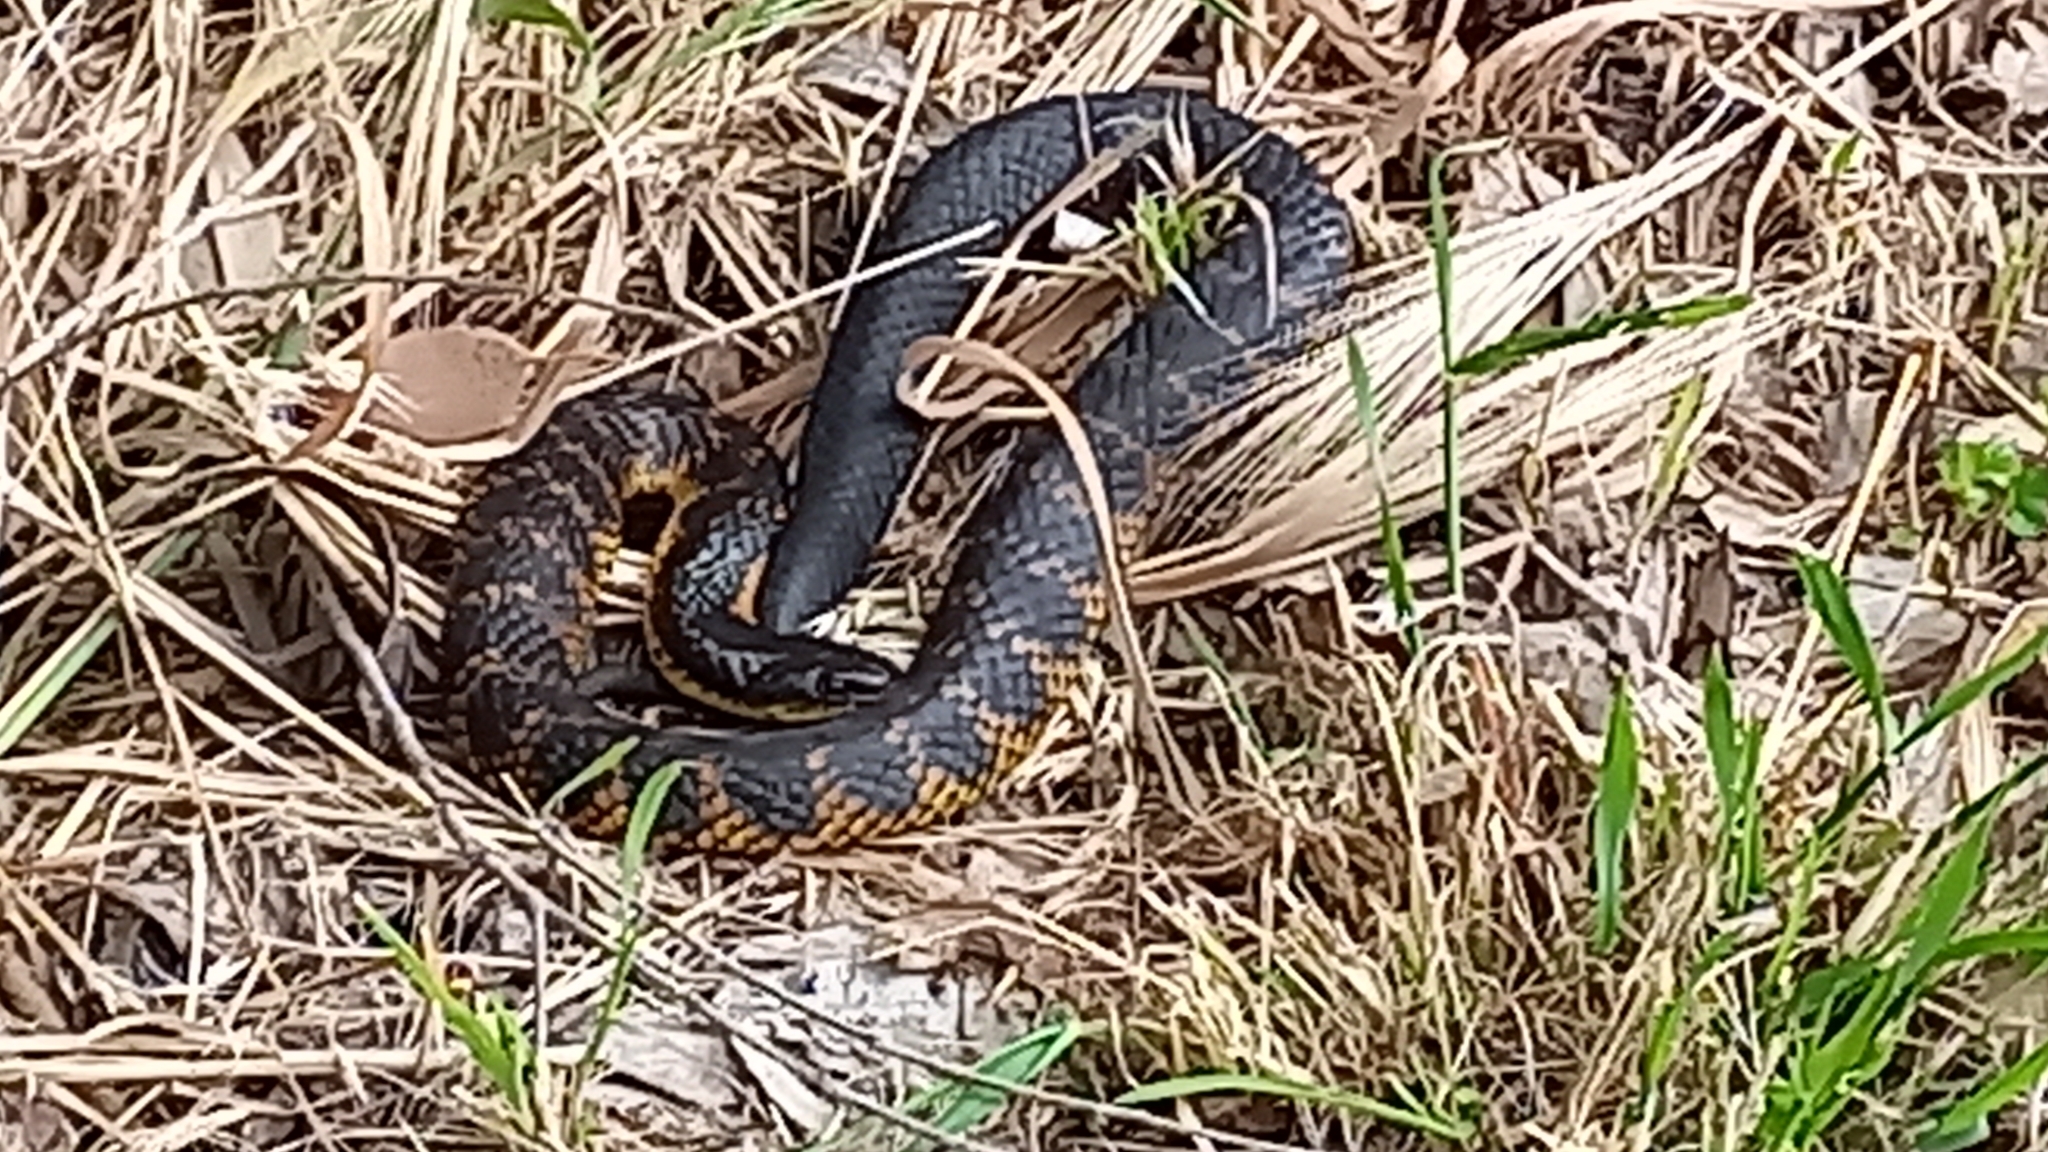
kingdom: Animalia
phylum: Chordata
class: Squamata
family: Elapidae
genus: Notechis
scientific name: Notechis scutatus
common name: Mainland tiger snake
